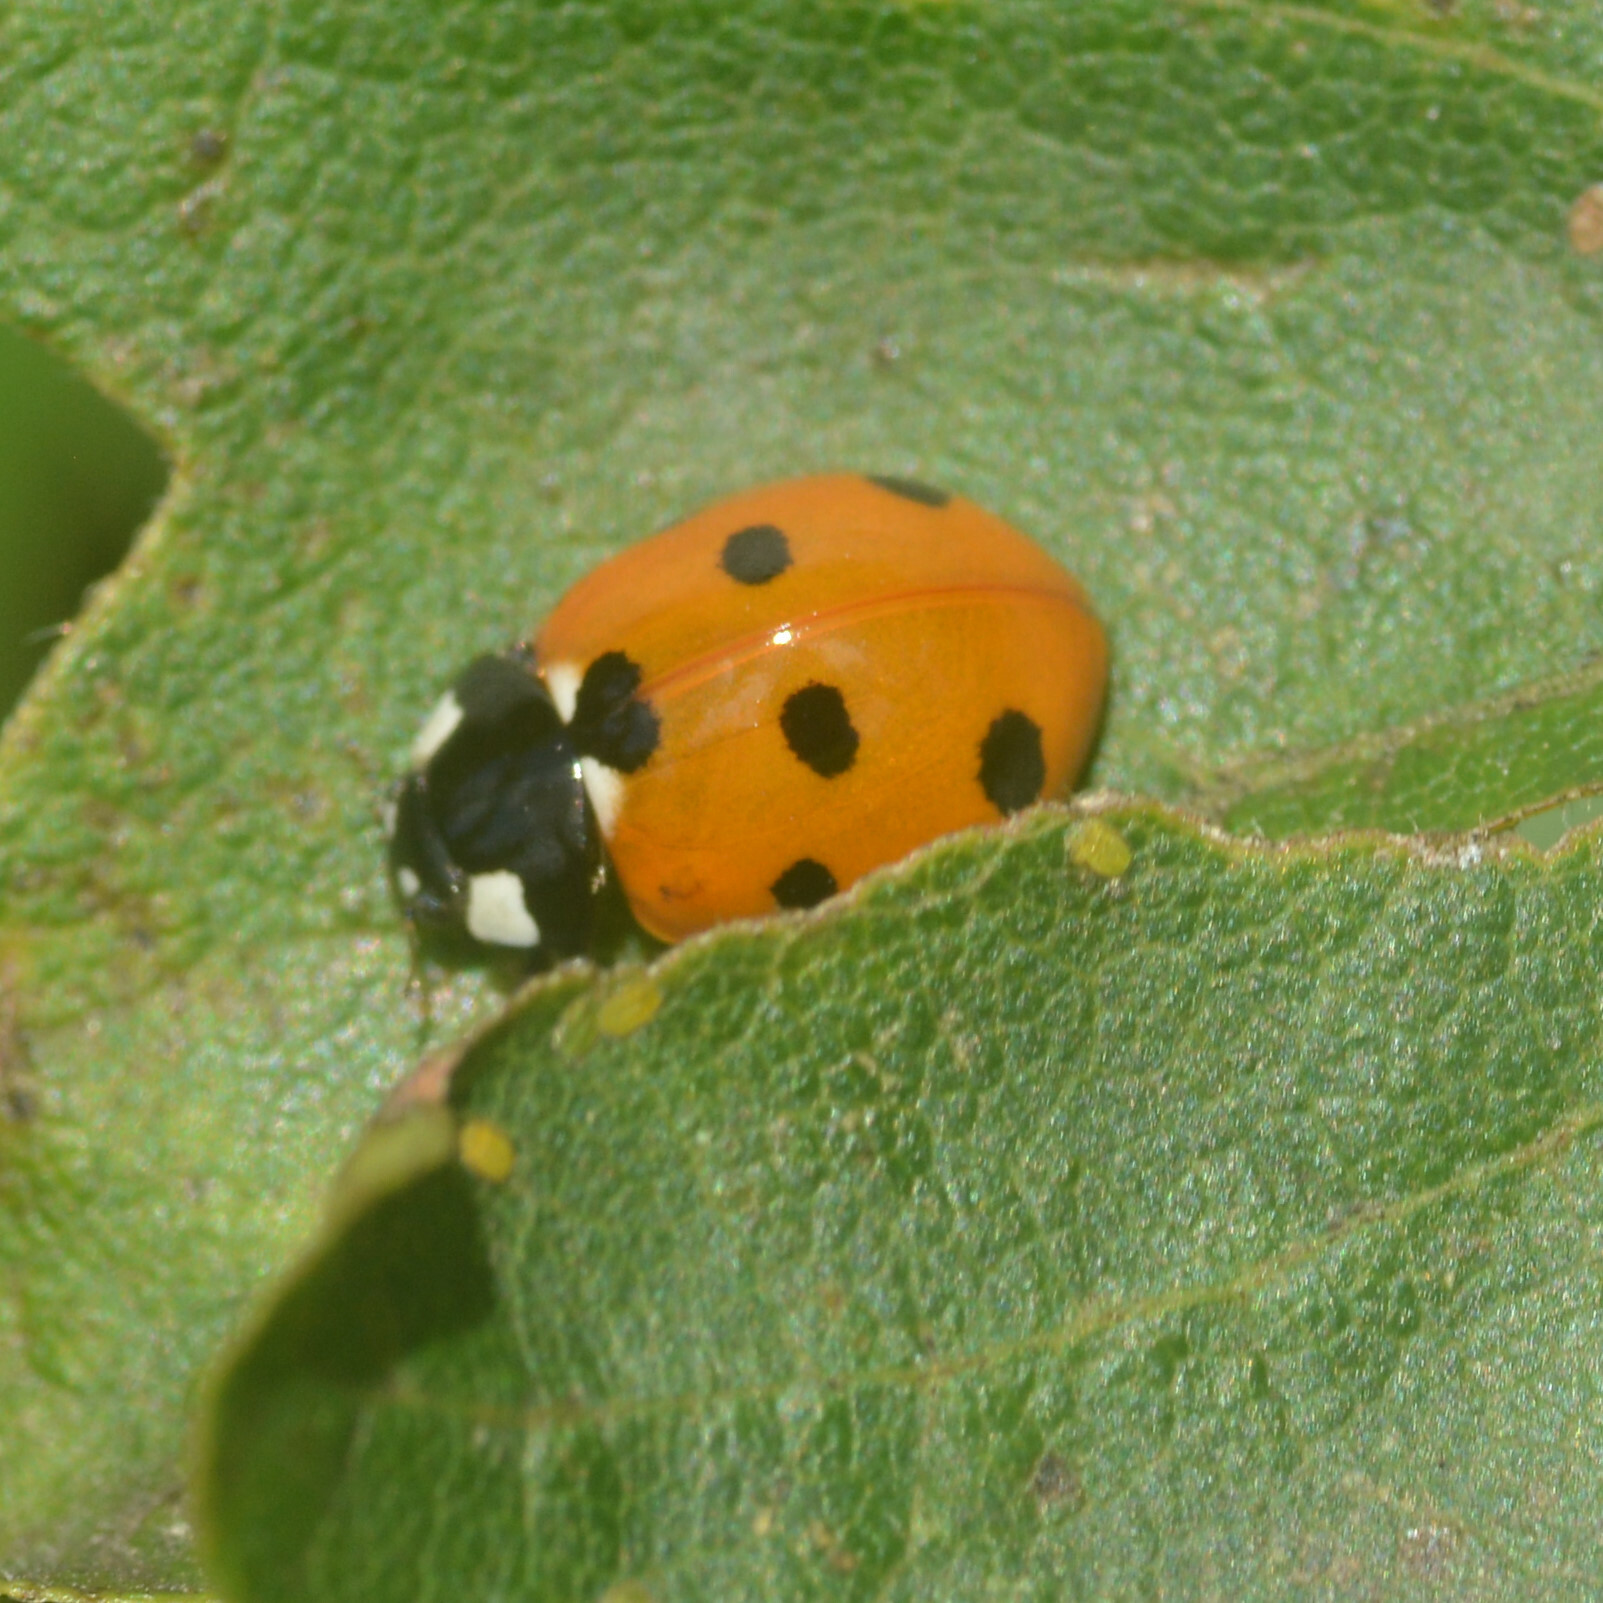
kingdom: Animalia
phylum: Arthropoda
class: Insecta
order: Coleoptera
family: Coccinellidae
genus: Coccinella
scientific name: Coccinella septempunctata
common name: Sevenspotted lady beetle
